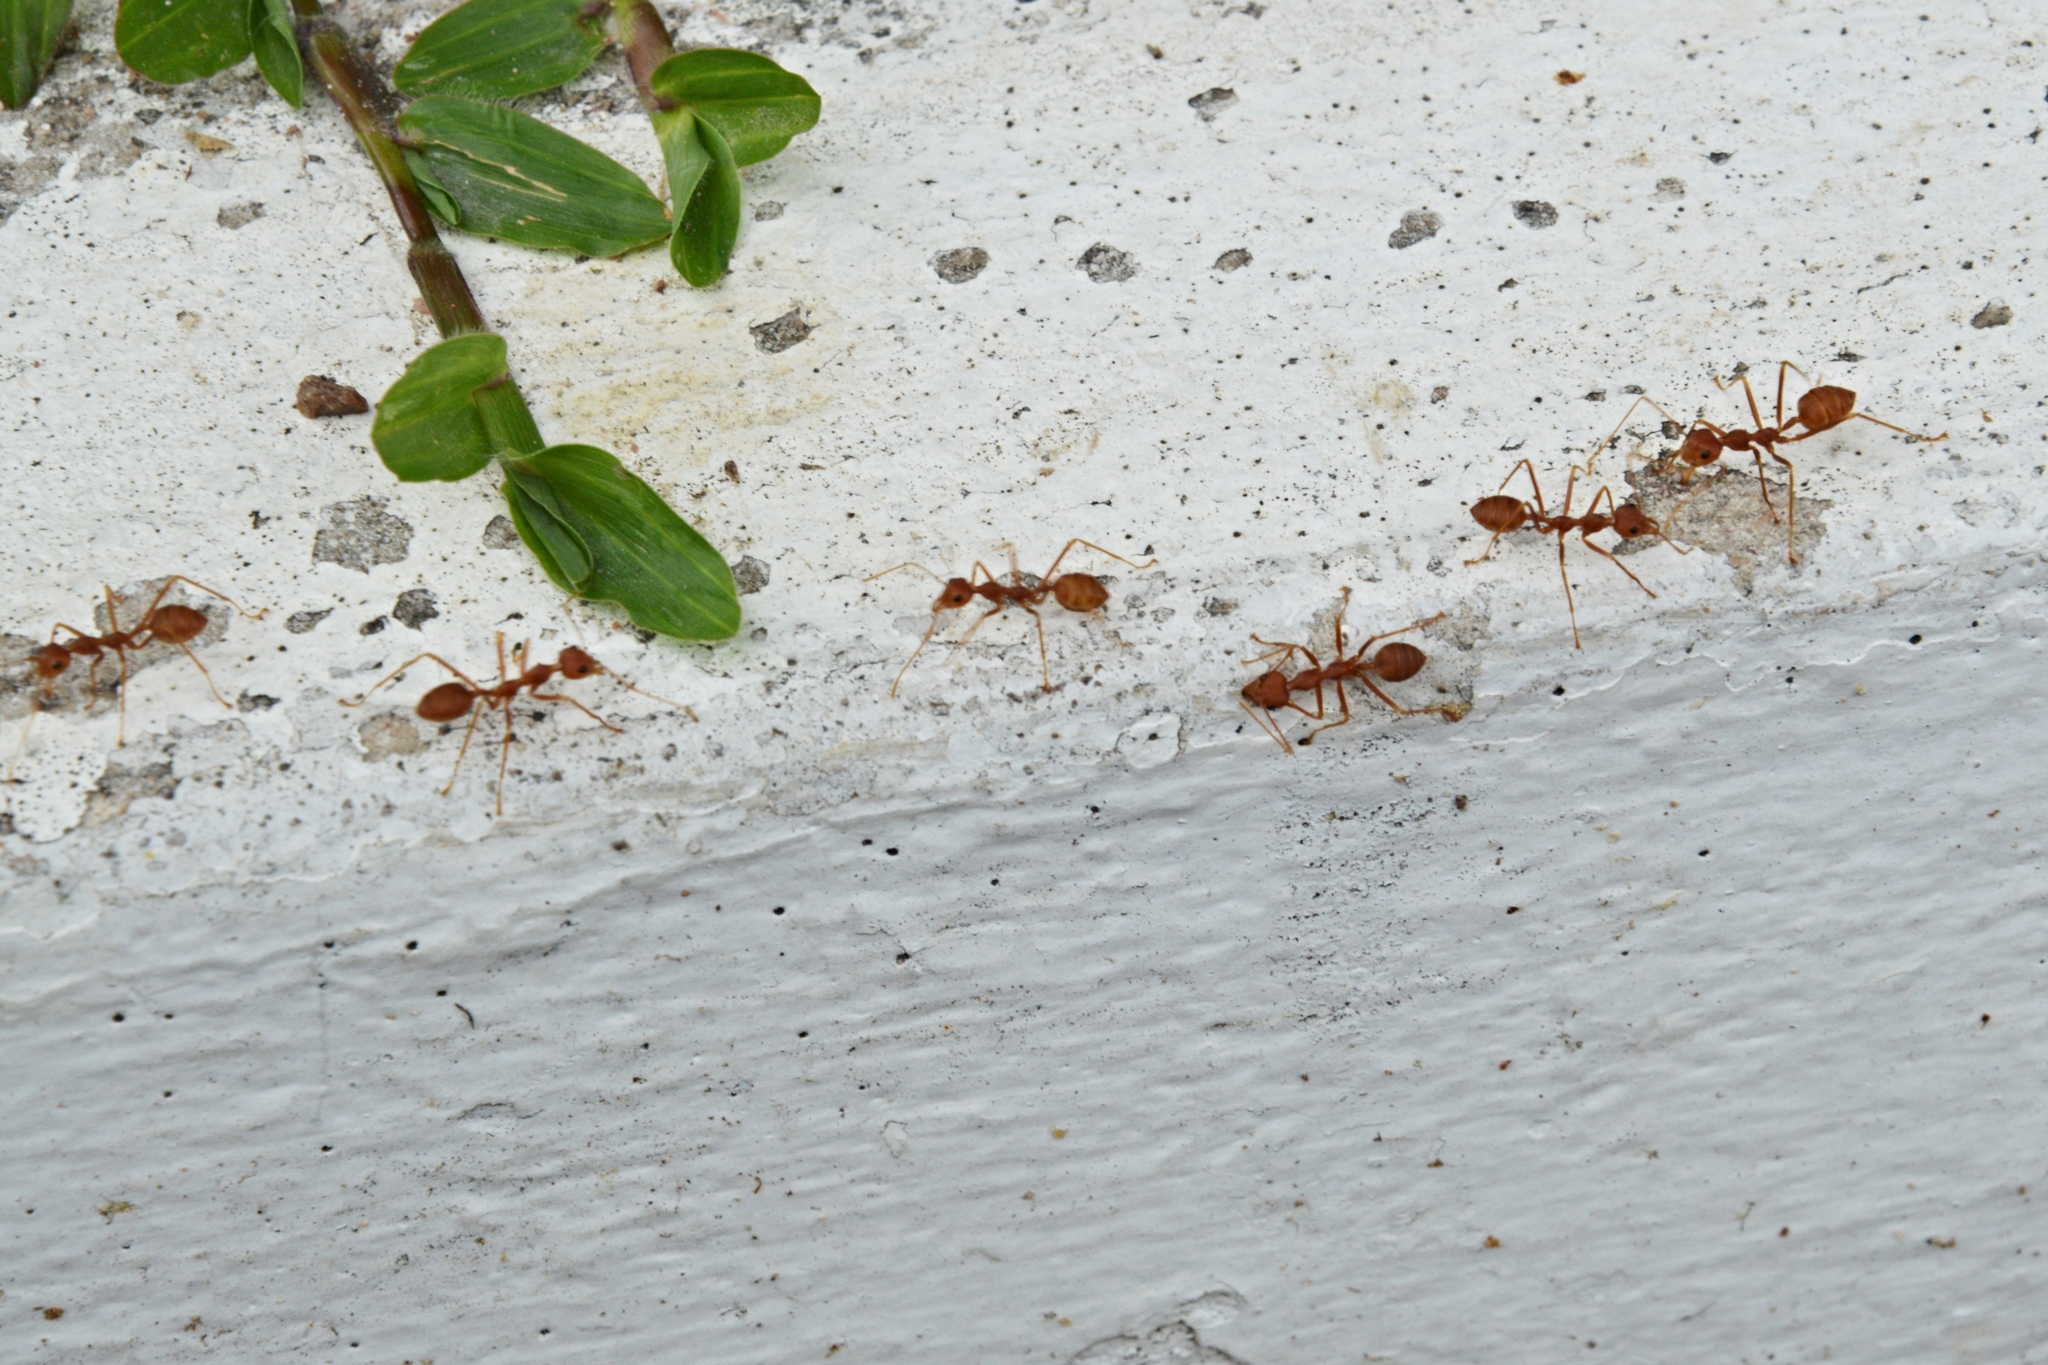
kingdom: Animalia
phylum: Arthropoda
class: Insecta
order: Hymenoptera
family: Formicidae
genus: Oecophylla
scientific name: Oecophylla smaragdina
